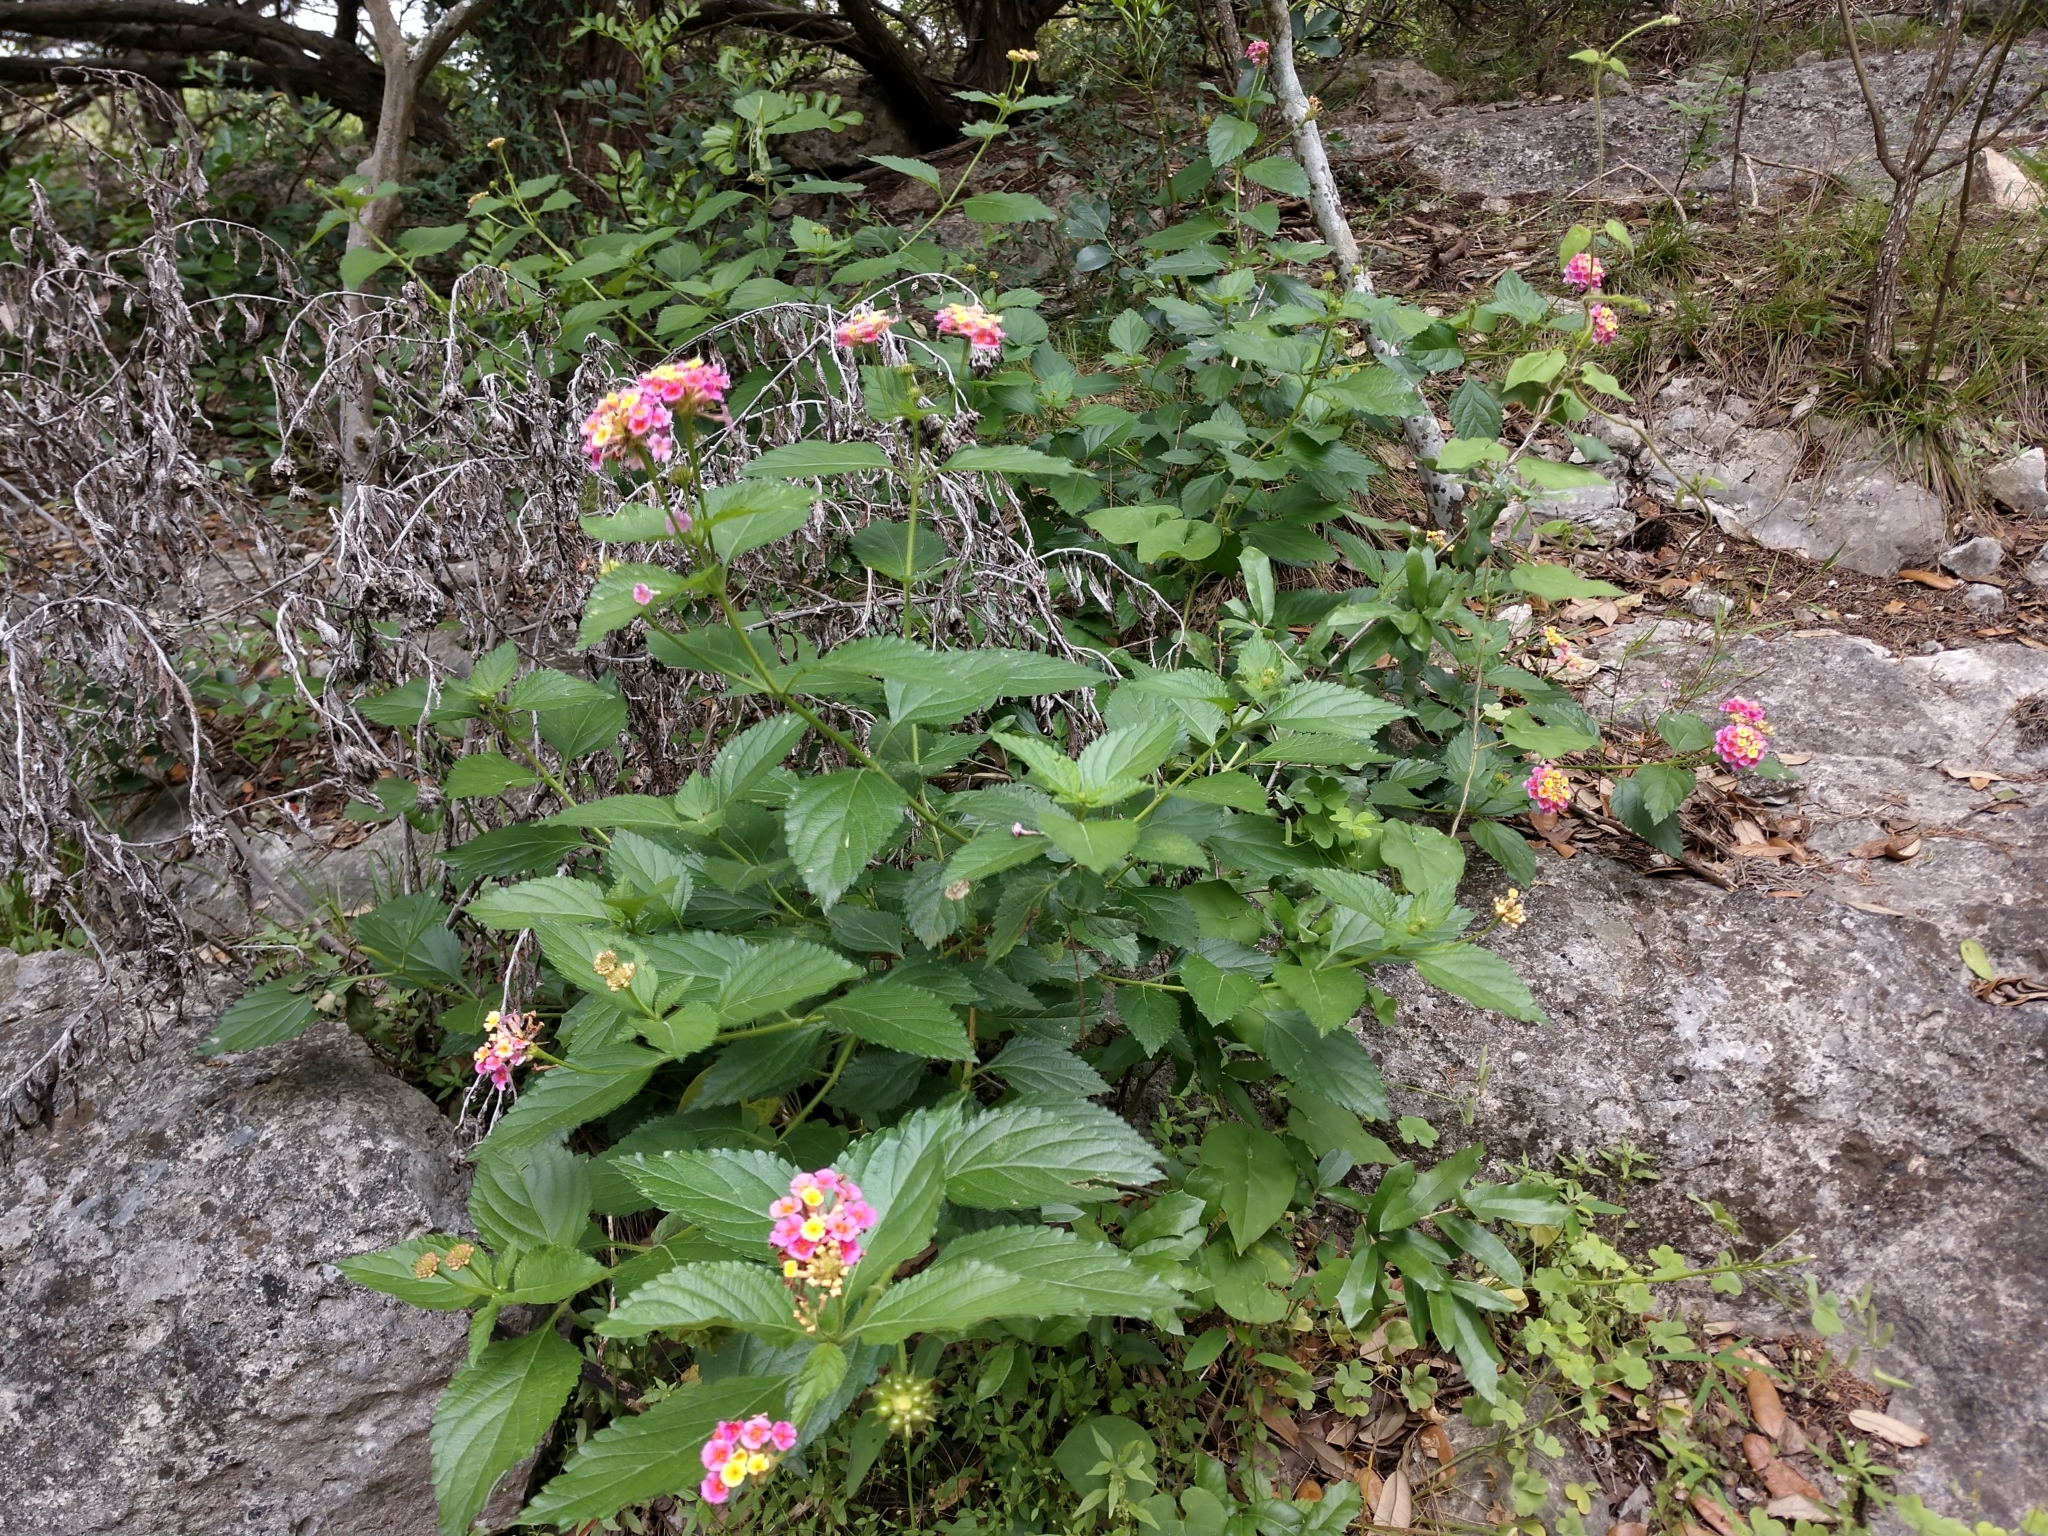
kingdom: Plantae
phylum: Tracheophyta
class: Magnoliopsida
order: Lamiales
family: Verbenaceae
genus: Lantana
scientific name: Lantana strigocamara
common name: Lantana
